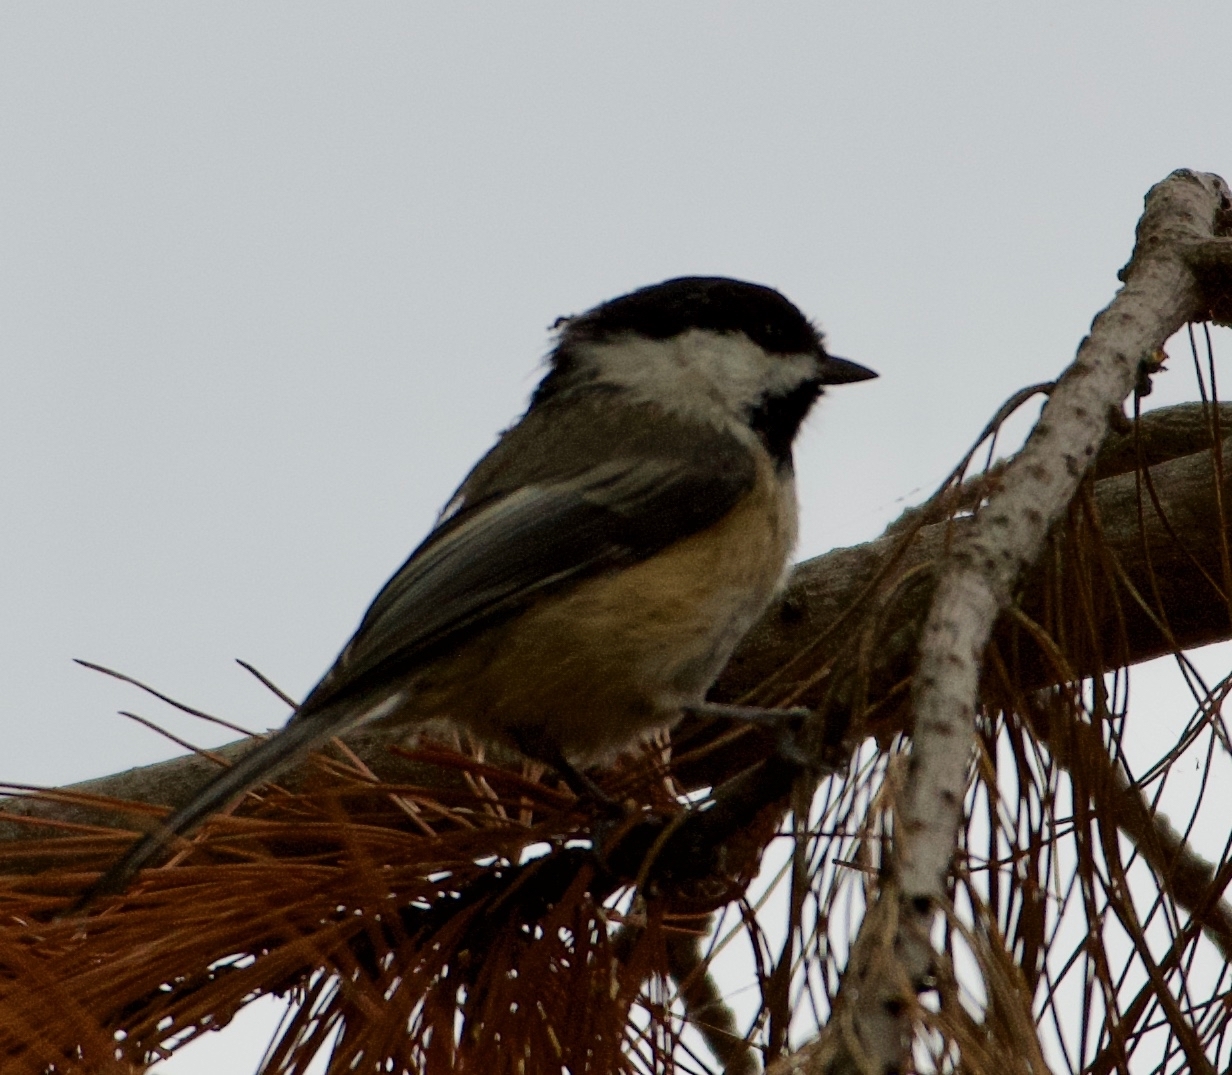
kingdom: Animalia
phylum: Chordata
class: Aves
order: Passeriformes
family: Paridae
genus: Poecile
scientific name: Poecile atricapillus
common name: Black-capped chickadee
